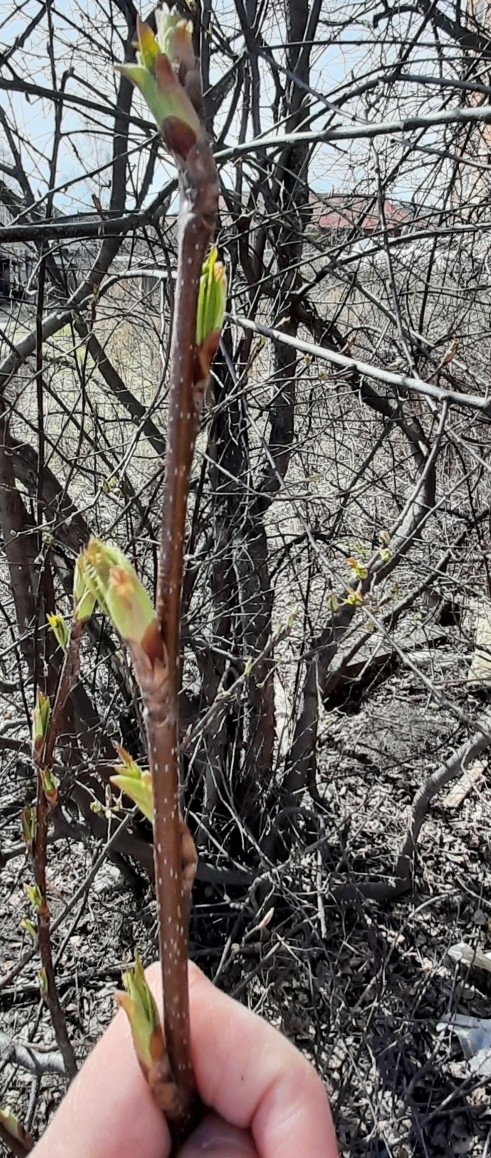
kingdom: Plantae
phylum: Tracheophyta
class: Magnoliopsida
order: Rosales
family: Rosaceae
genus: Prunus
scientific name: Prunus padus
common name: Bird cherry
